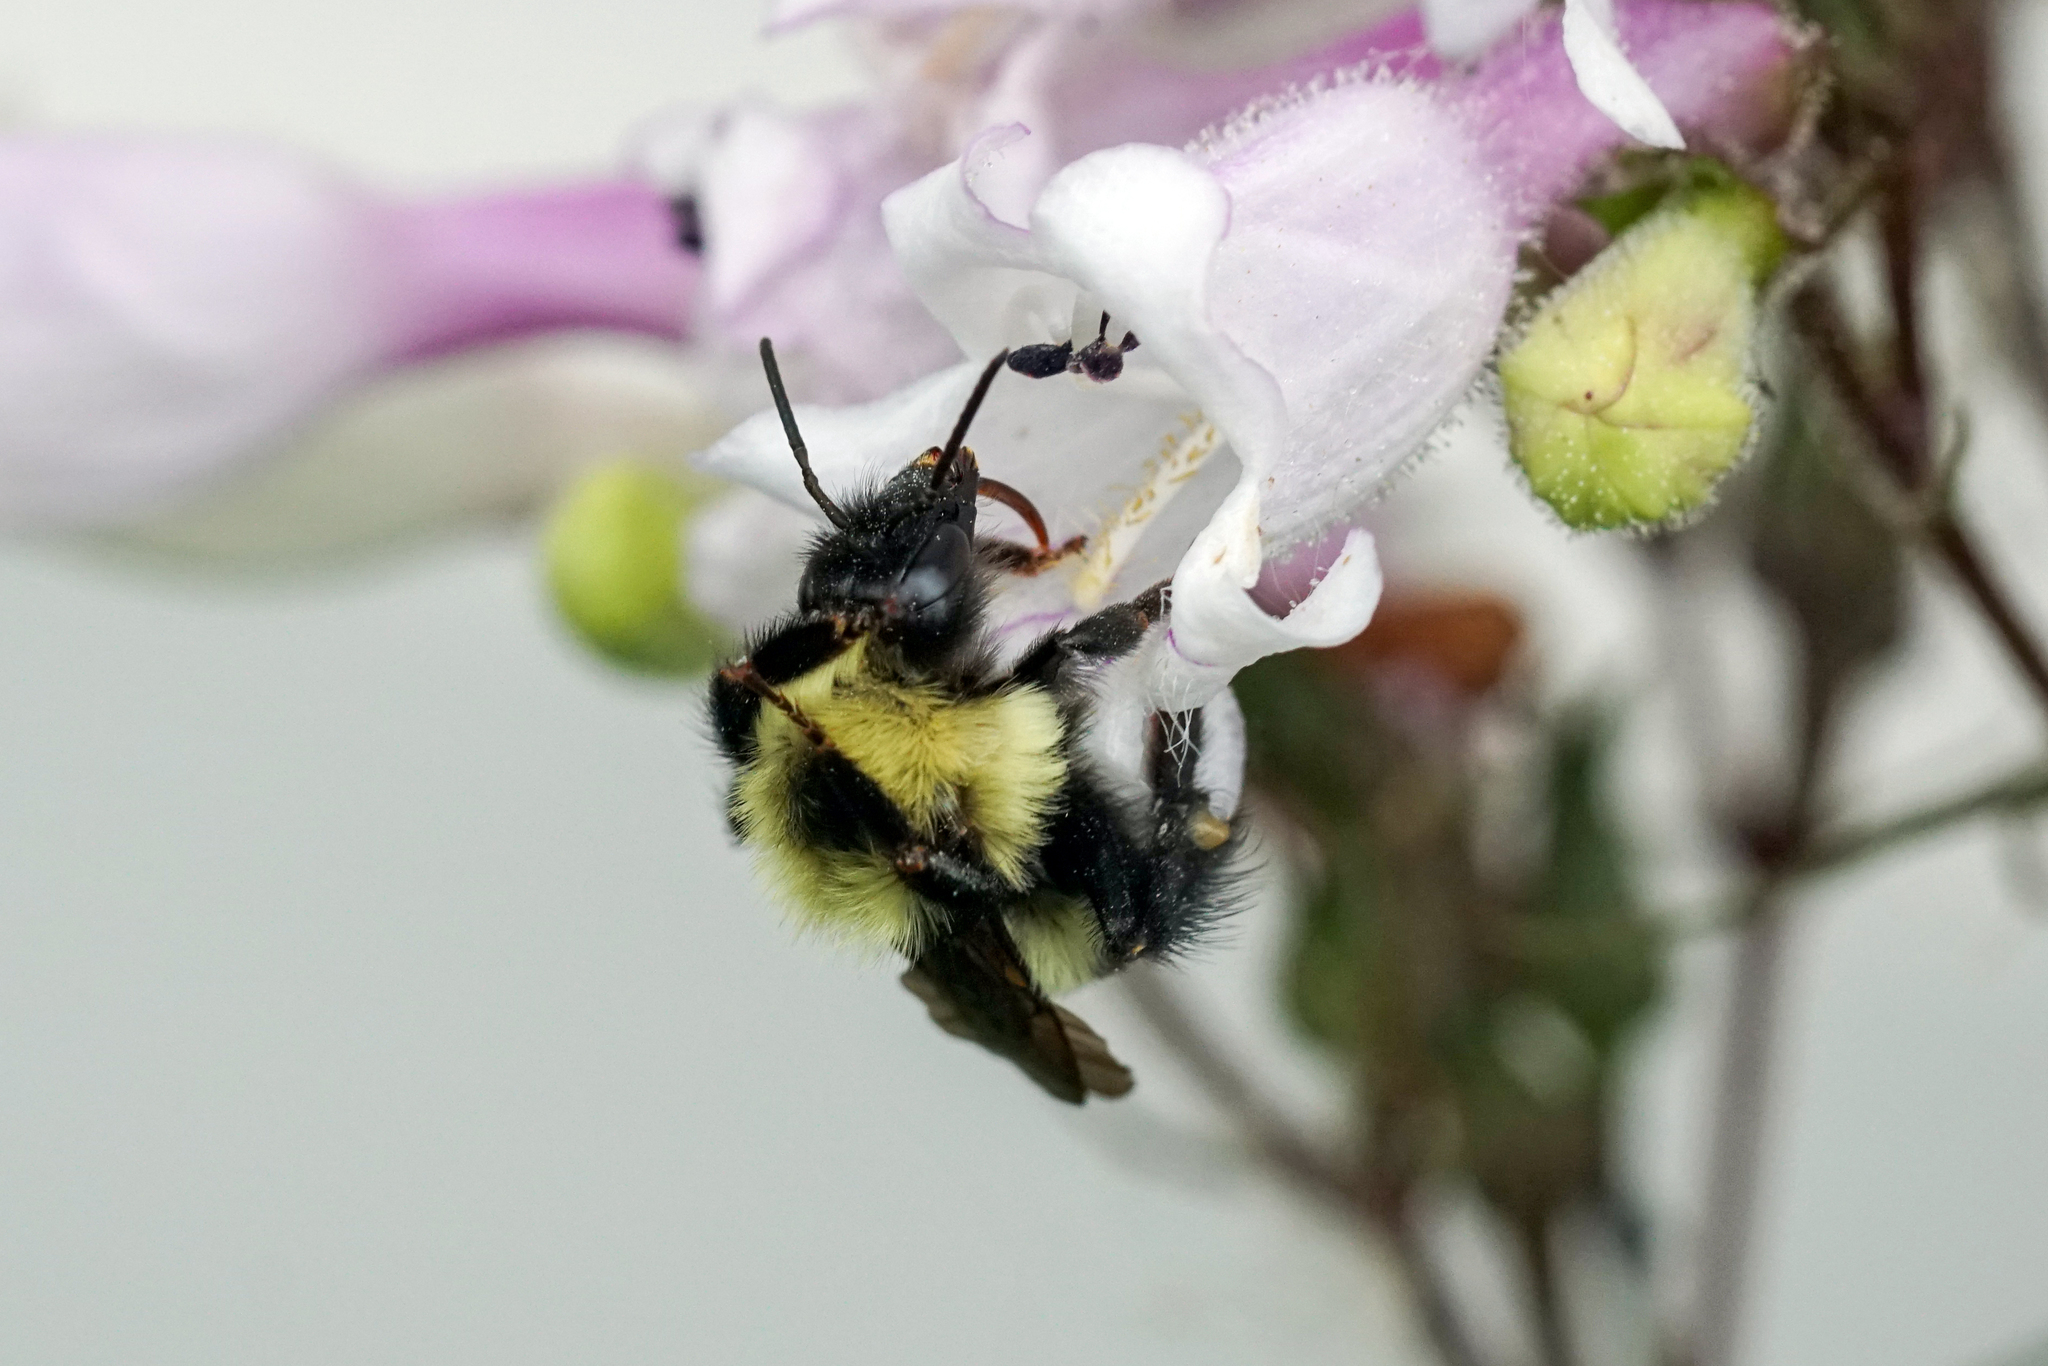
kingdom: Animalia
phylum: Arthropoda
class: Insecta
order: Hymenoptera
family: Apidae
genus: Bombus
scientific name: Bombus bimaculatus
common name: Two-spotted bumble bee
